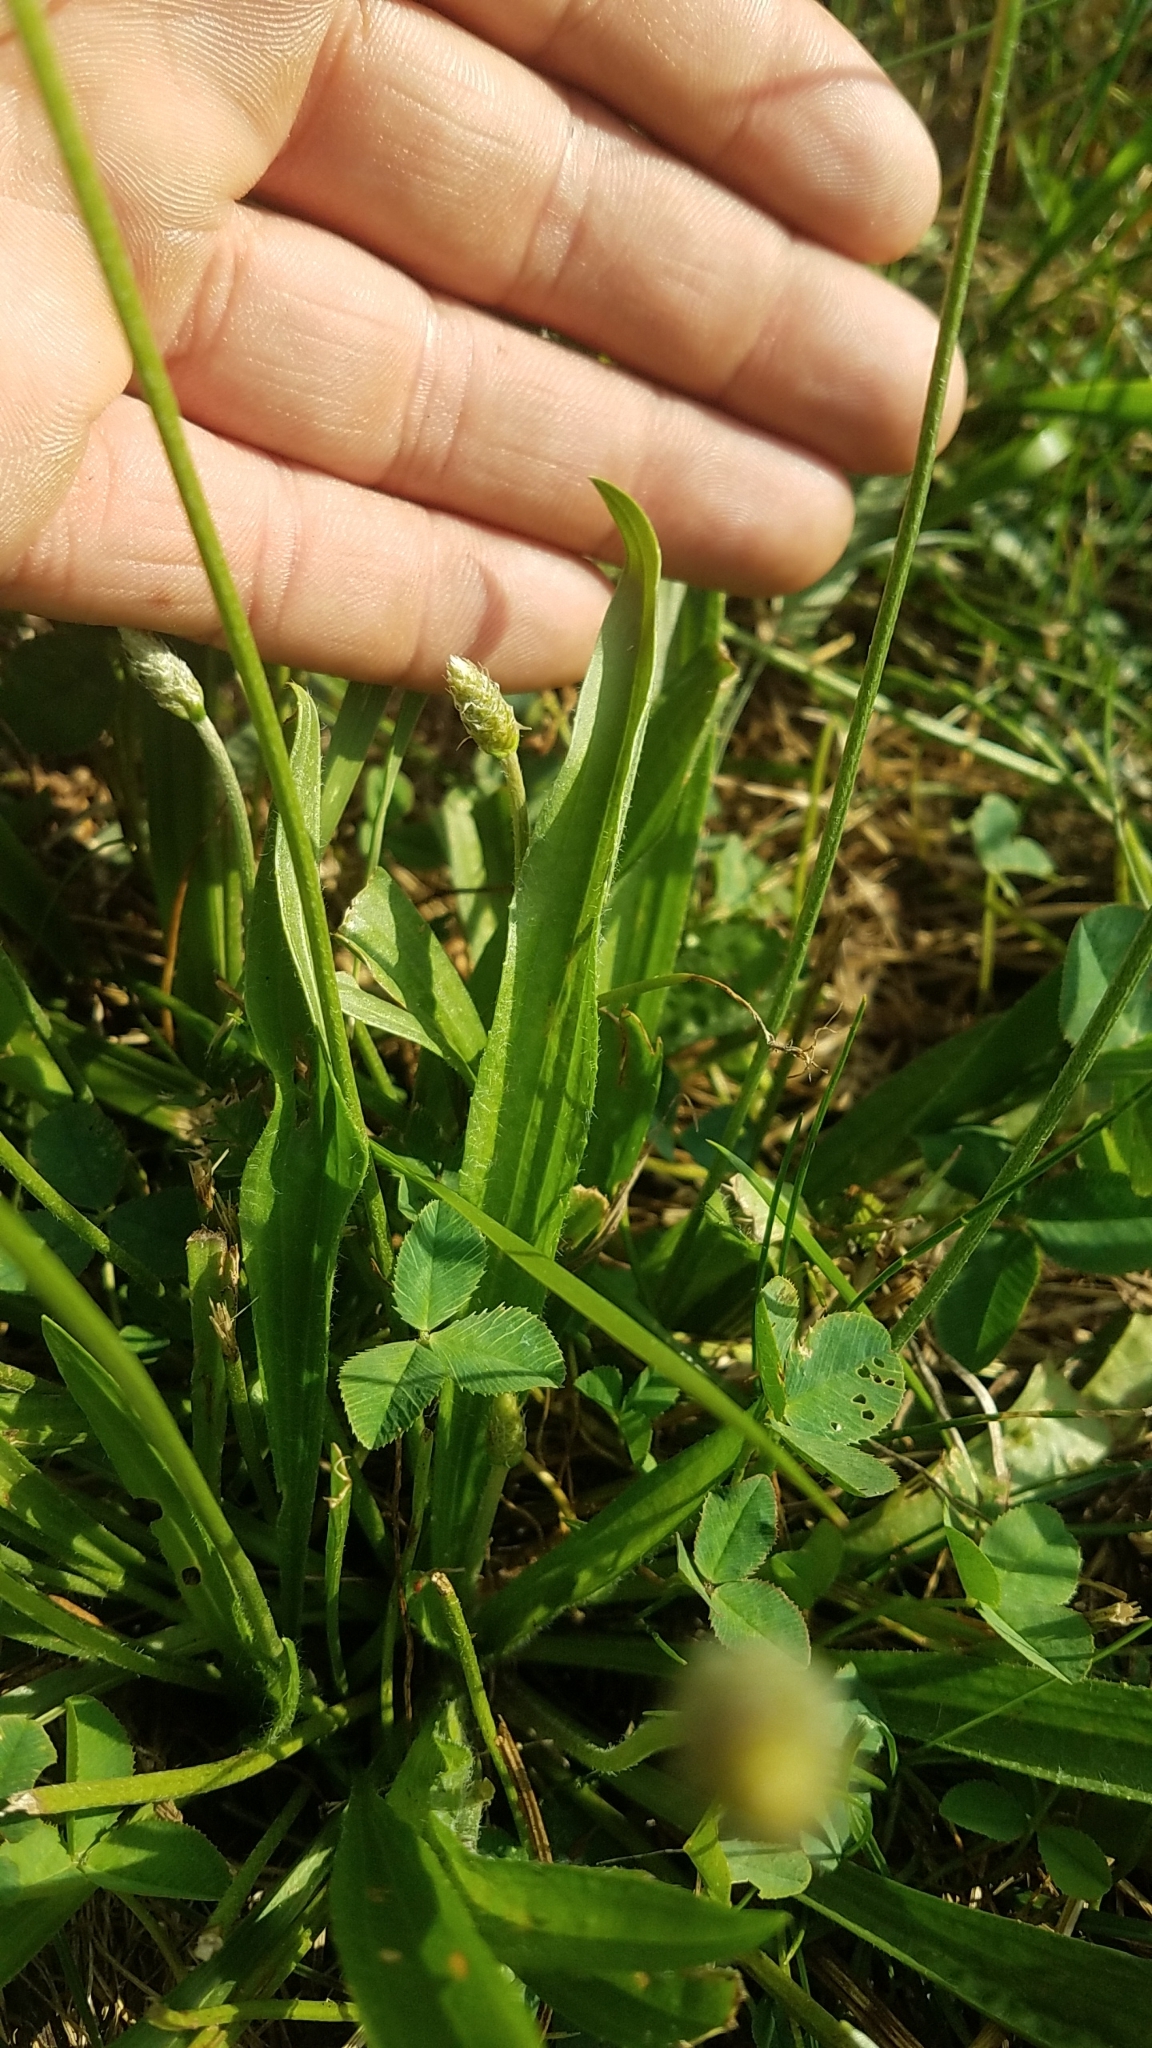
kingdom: Plantae
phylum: Tracheophyta
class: Magnoliopsida
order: Lamiales
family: Plantaginaceae
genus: Plantago
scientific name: Plantago lanceolata
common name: Ribwort plantain
